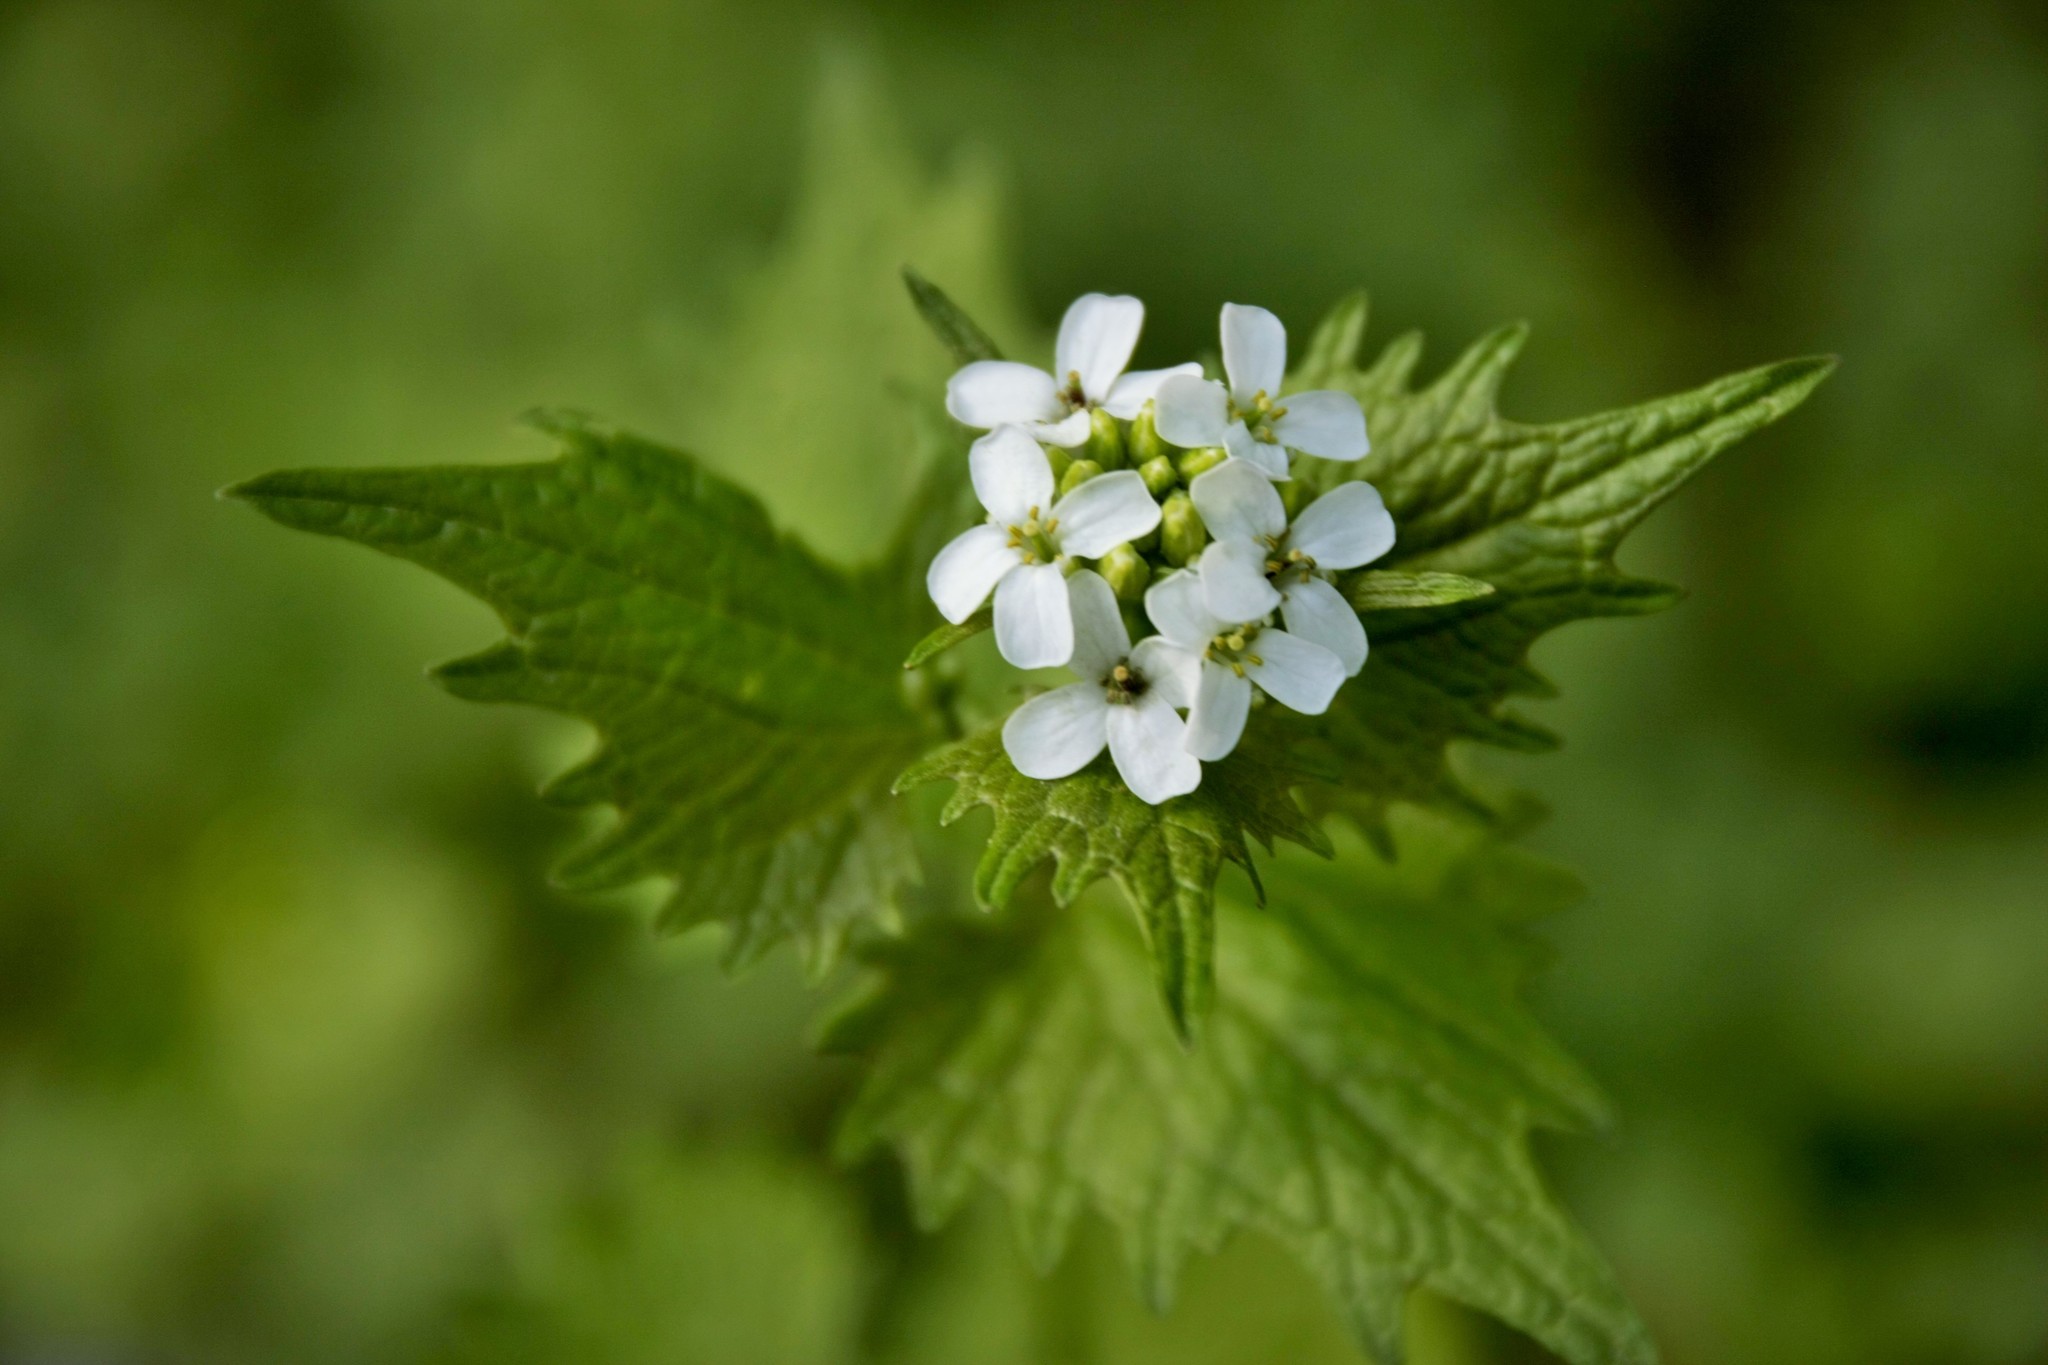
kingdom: Plantae
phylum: Tracheophyta
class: Magnoliopsida
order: Brassicales
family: Brassicaceae
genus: Alliaria
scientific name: Alliaria petiolata
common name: Garlic mustard
